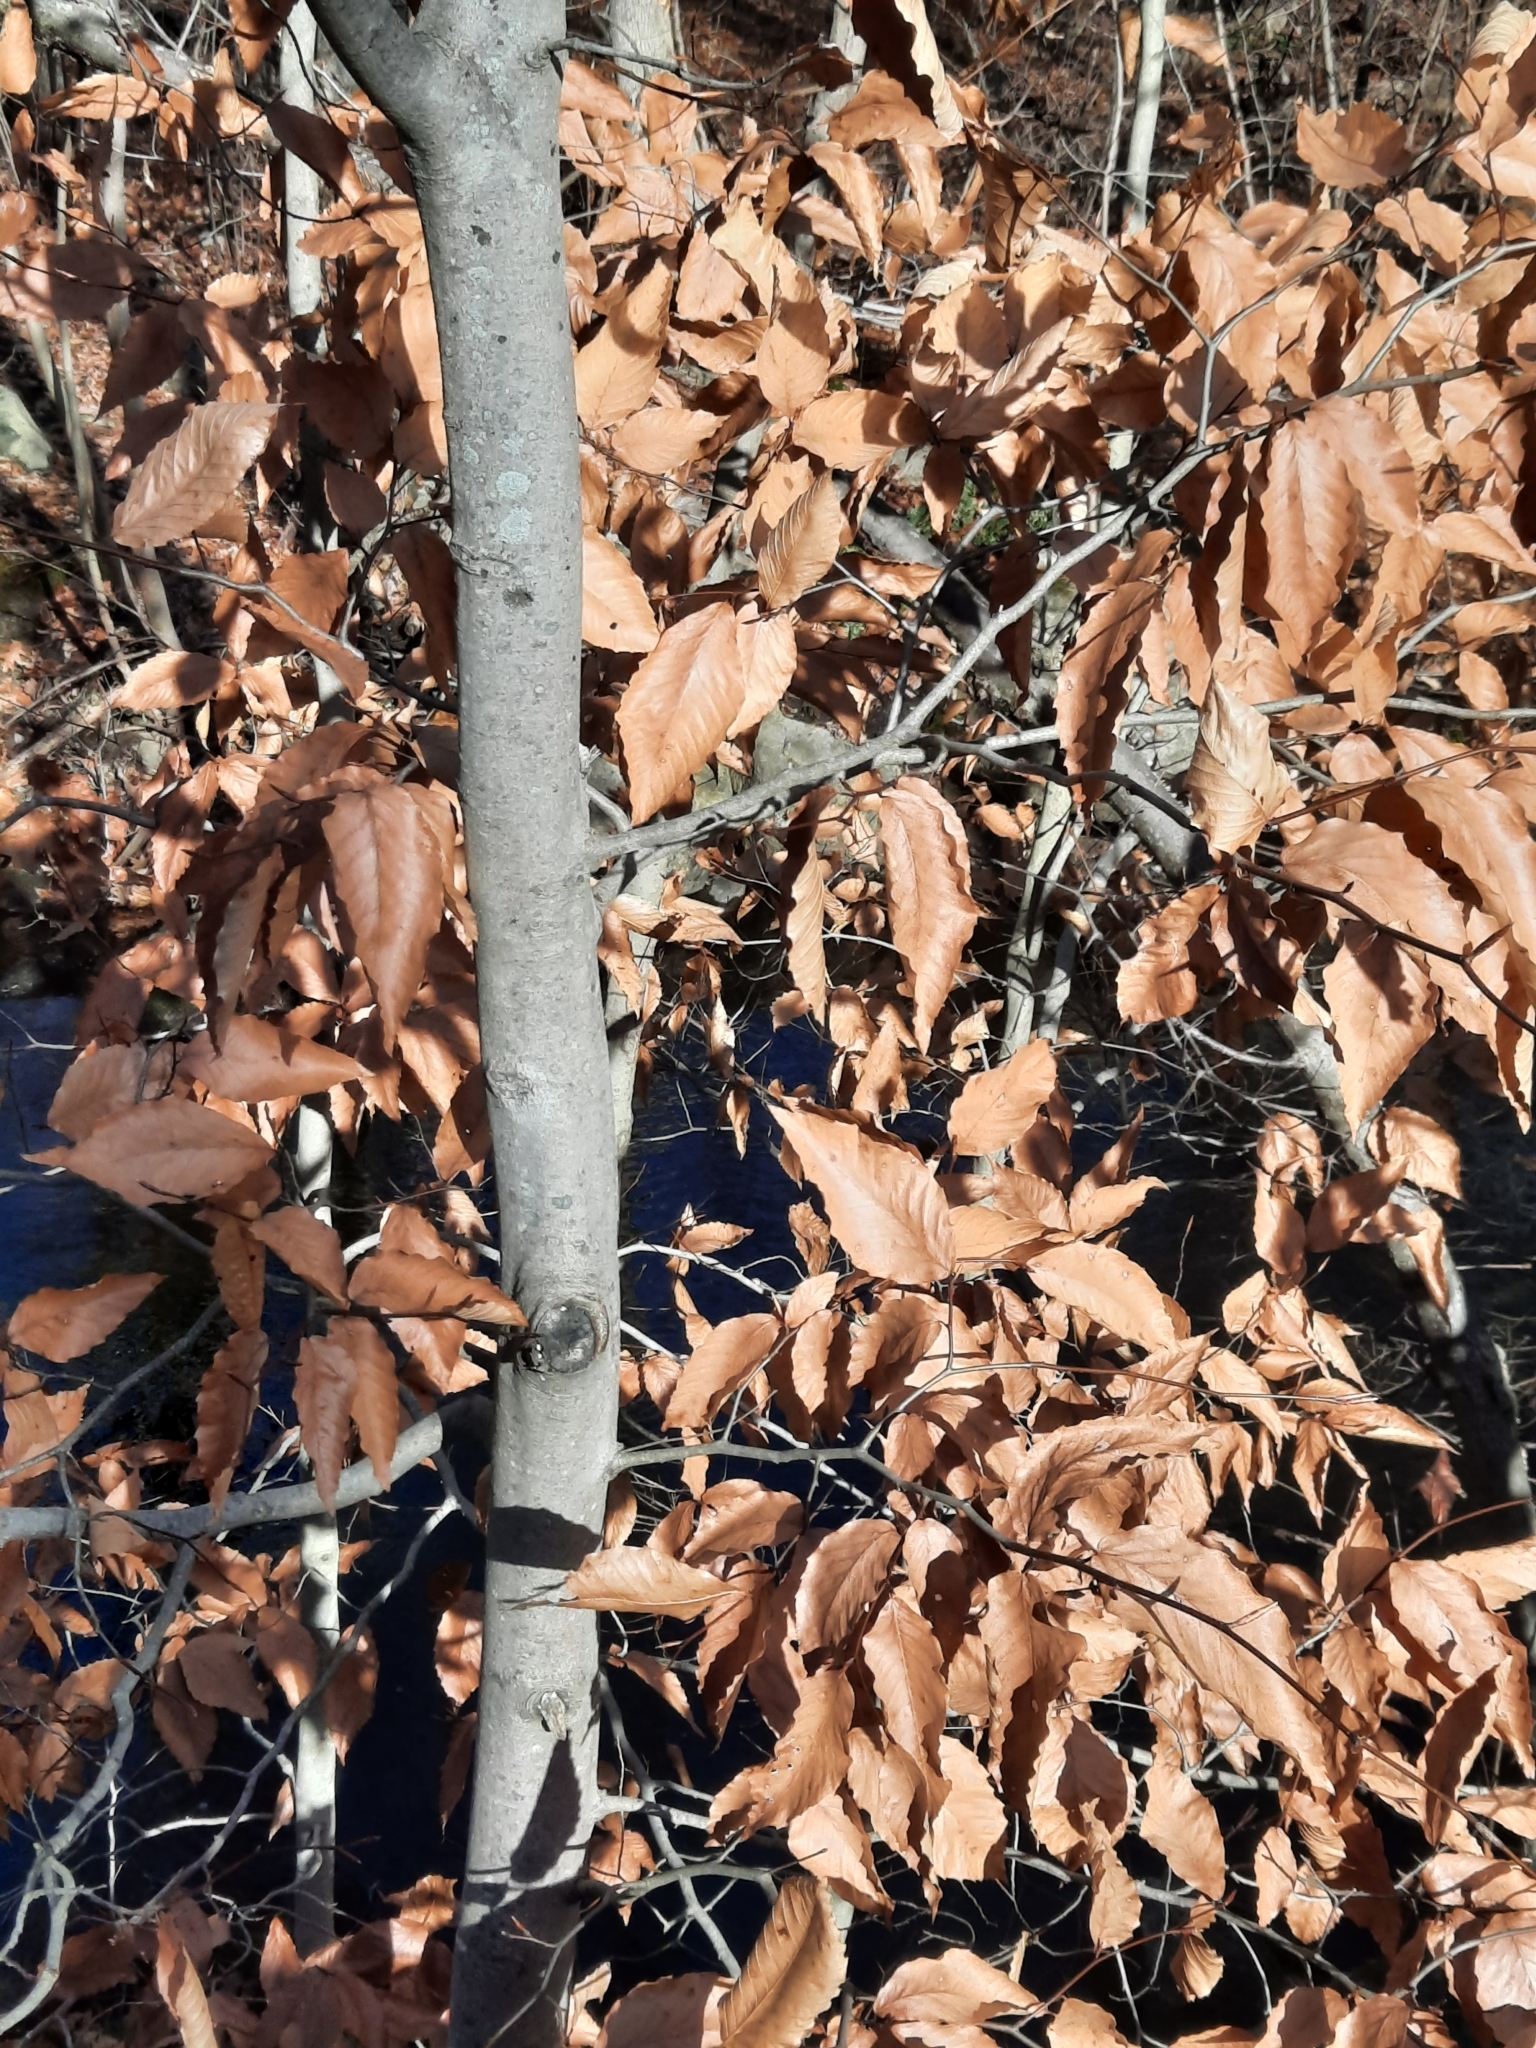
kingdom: Plantae
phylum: Tracheophyta
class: Magnoliopsida
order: Fagales
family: Fagaceae
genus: Fagus
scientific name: Fagus grandifolia
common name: American beech
